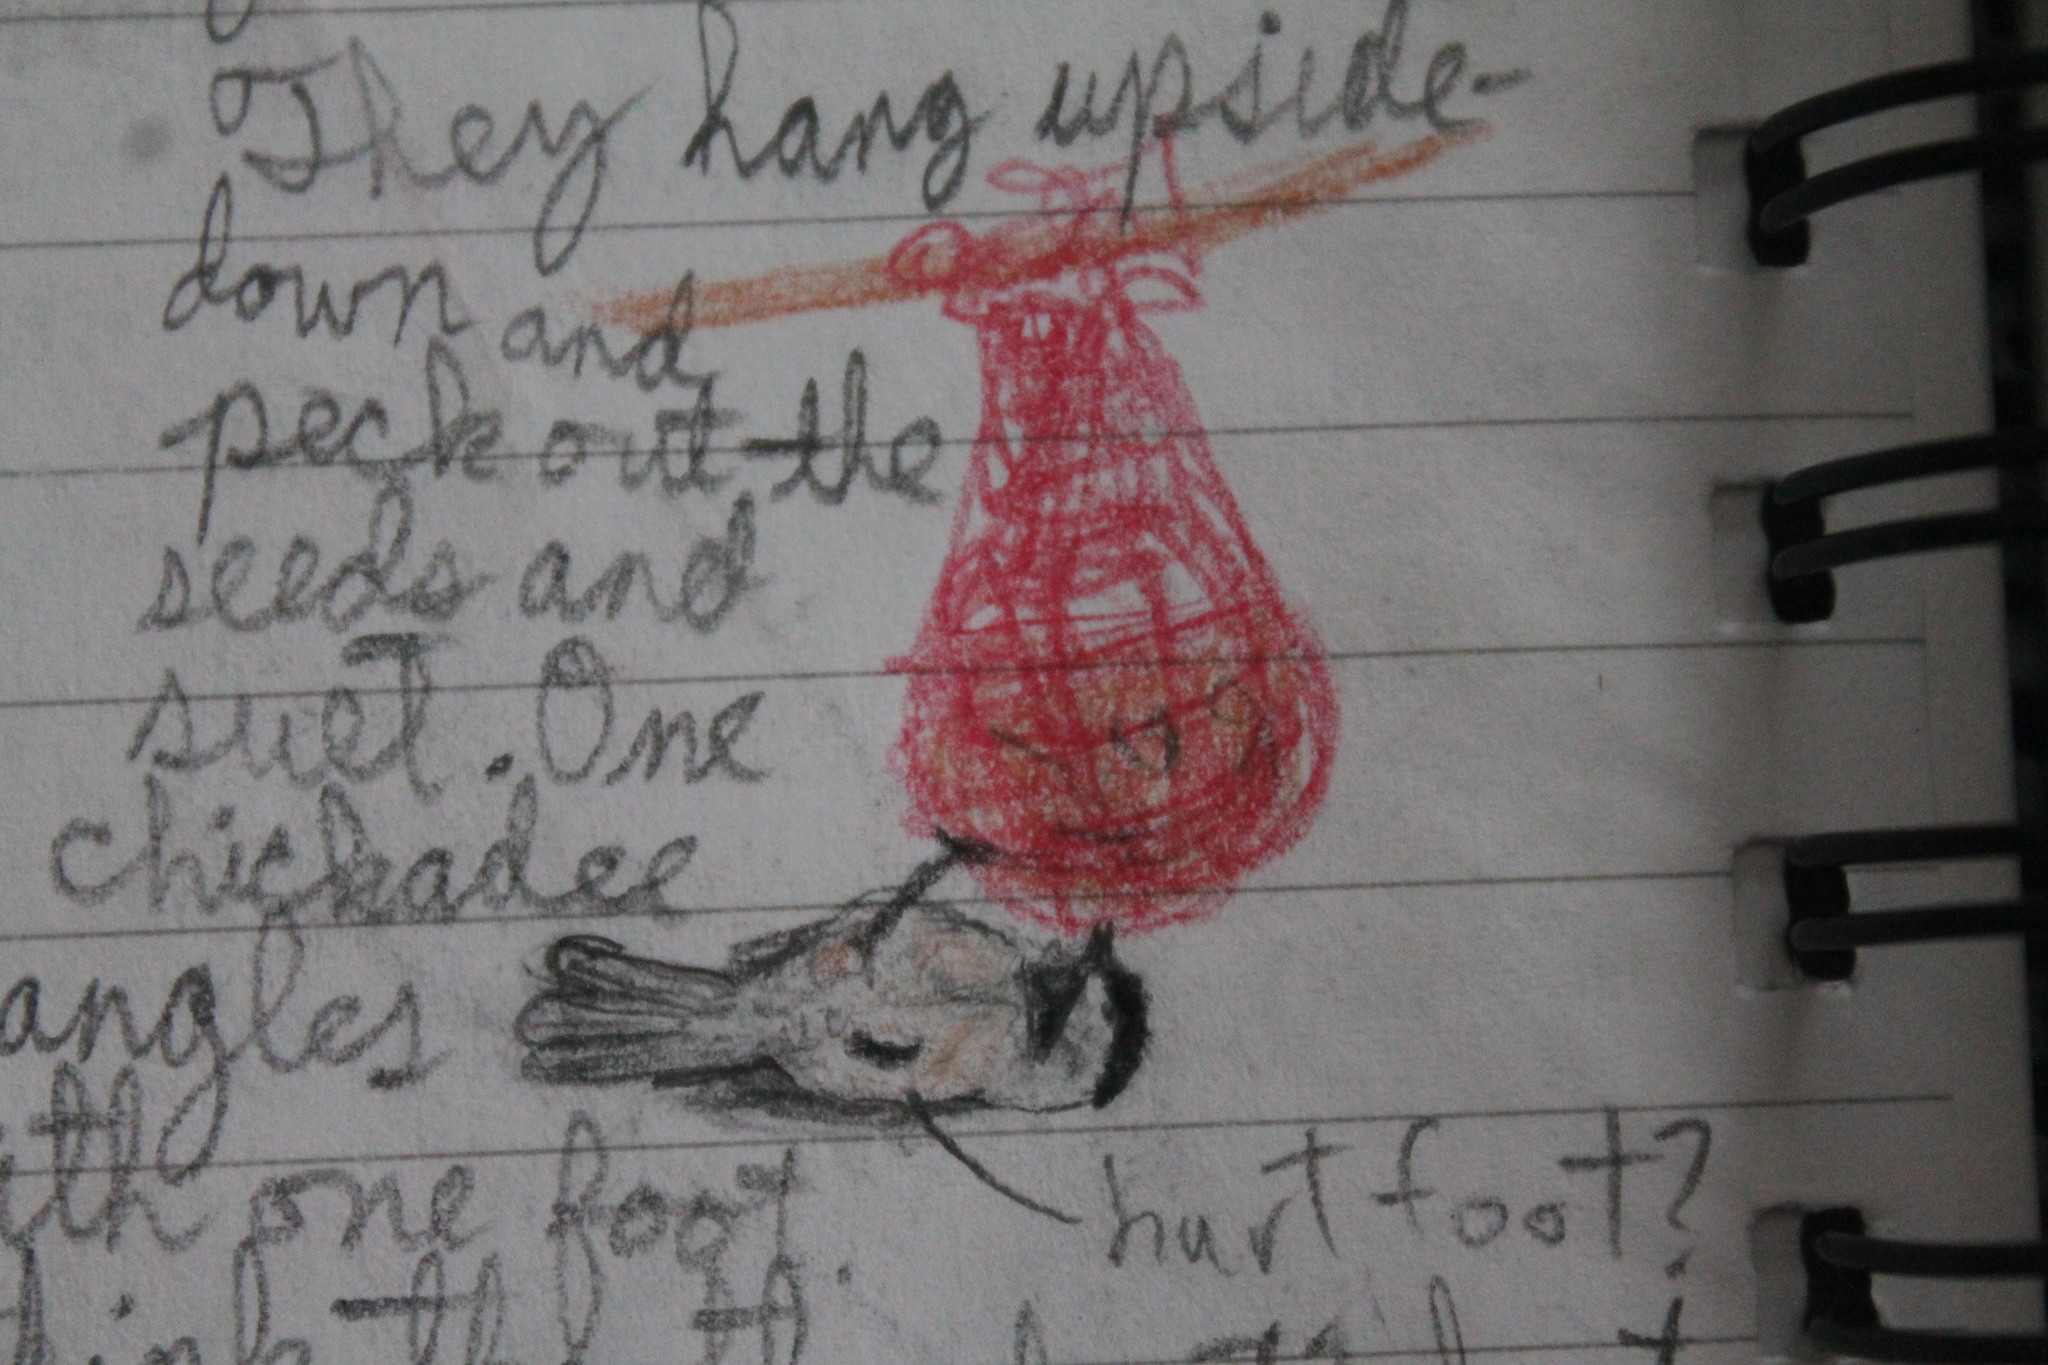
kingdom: Animalia
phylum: Chordata
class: Aves
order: Passeriformes
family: Paridae
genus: Poecile
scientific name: Poecile atricapillus
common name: Black-capped chickadee
